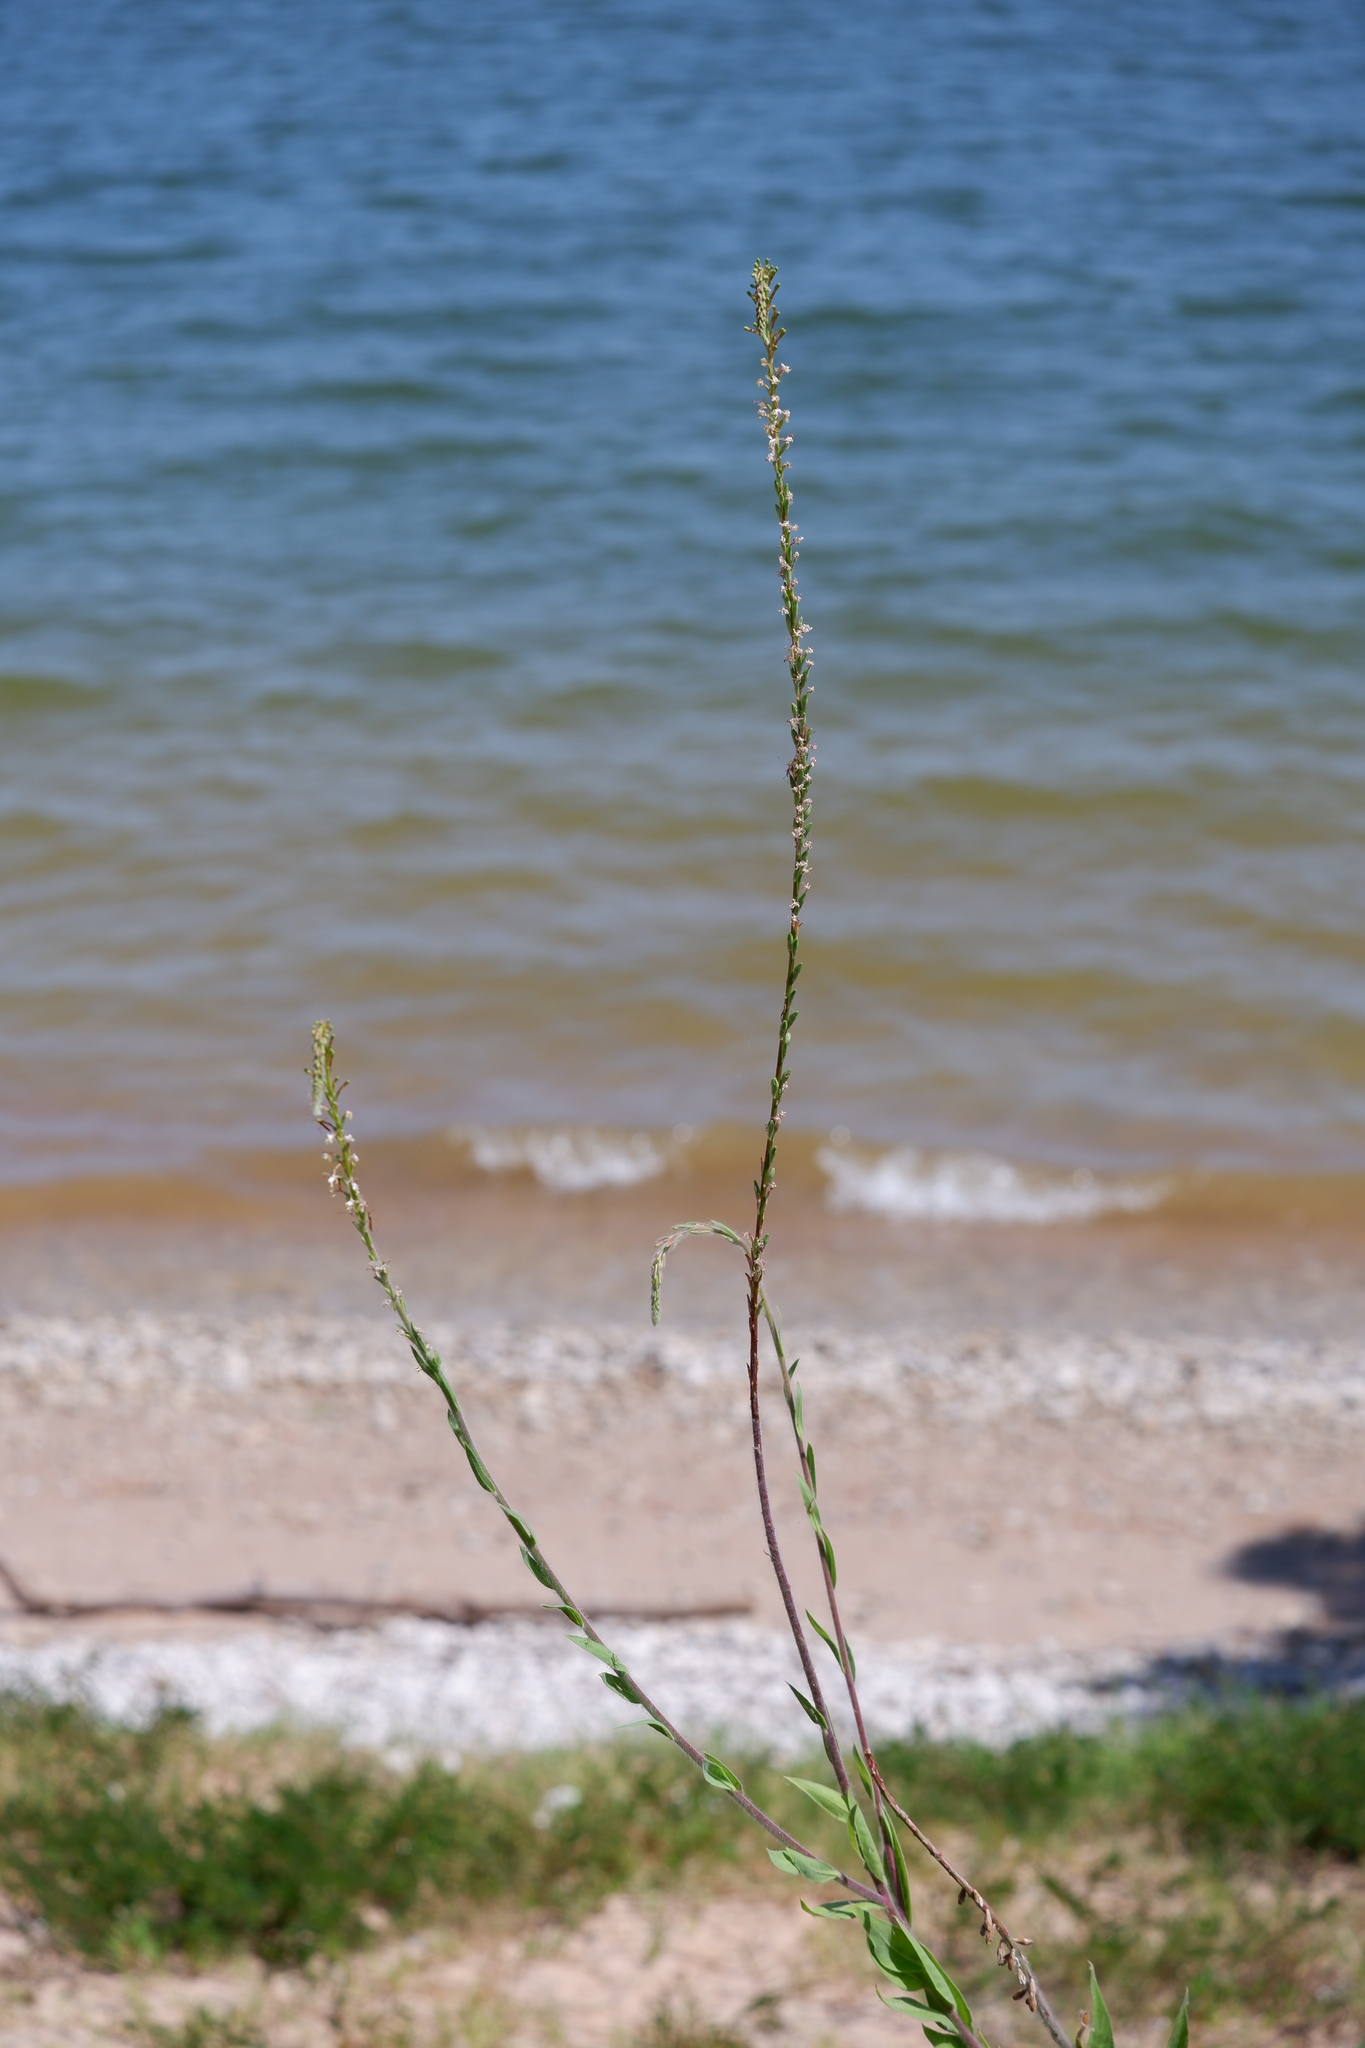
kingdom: Plantae
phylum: Tracheophyta
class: Magnoliopsida
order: Myrtales
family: Onagraceae
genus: Oenothera
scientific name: Oenothera curtiflora
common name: Velvetweed
